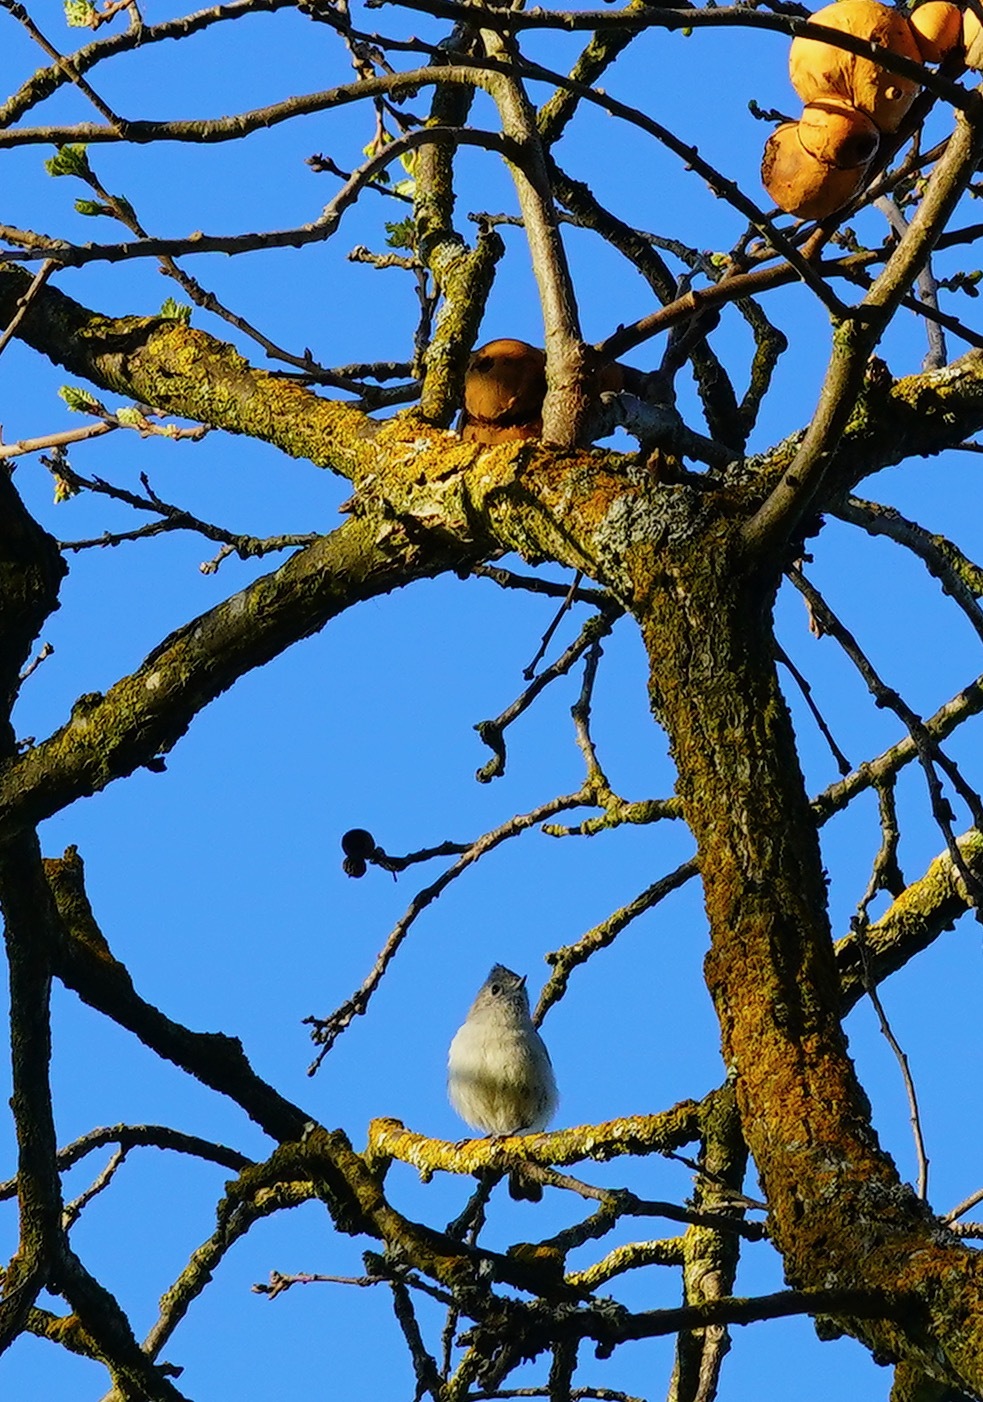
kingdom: Animalia
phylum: Chordata
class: Aves
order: Passeriformes
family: Paridae
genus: Baeolophus
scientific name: Baeolophus inornatus
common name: Oak titmouse
